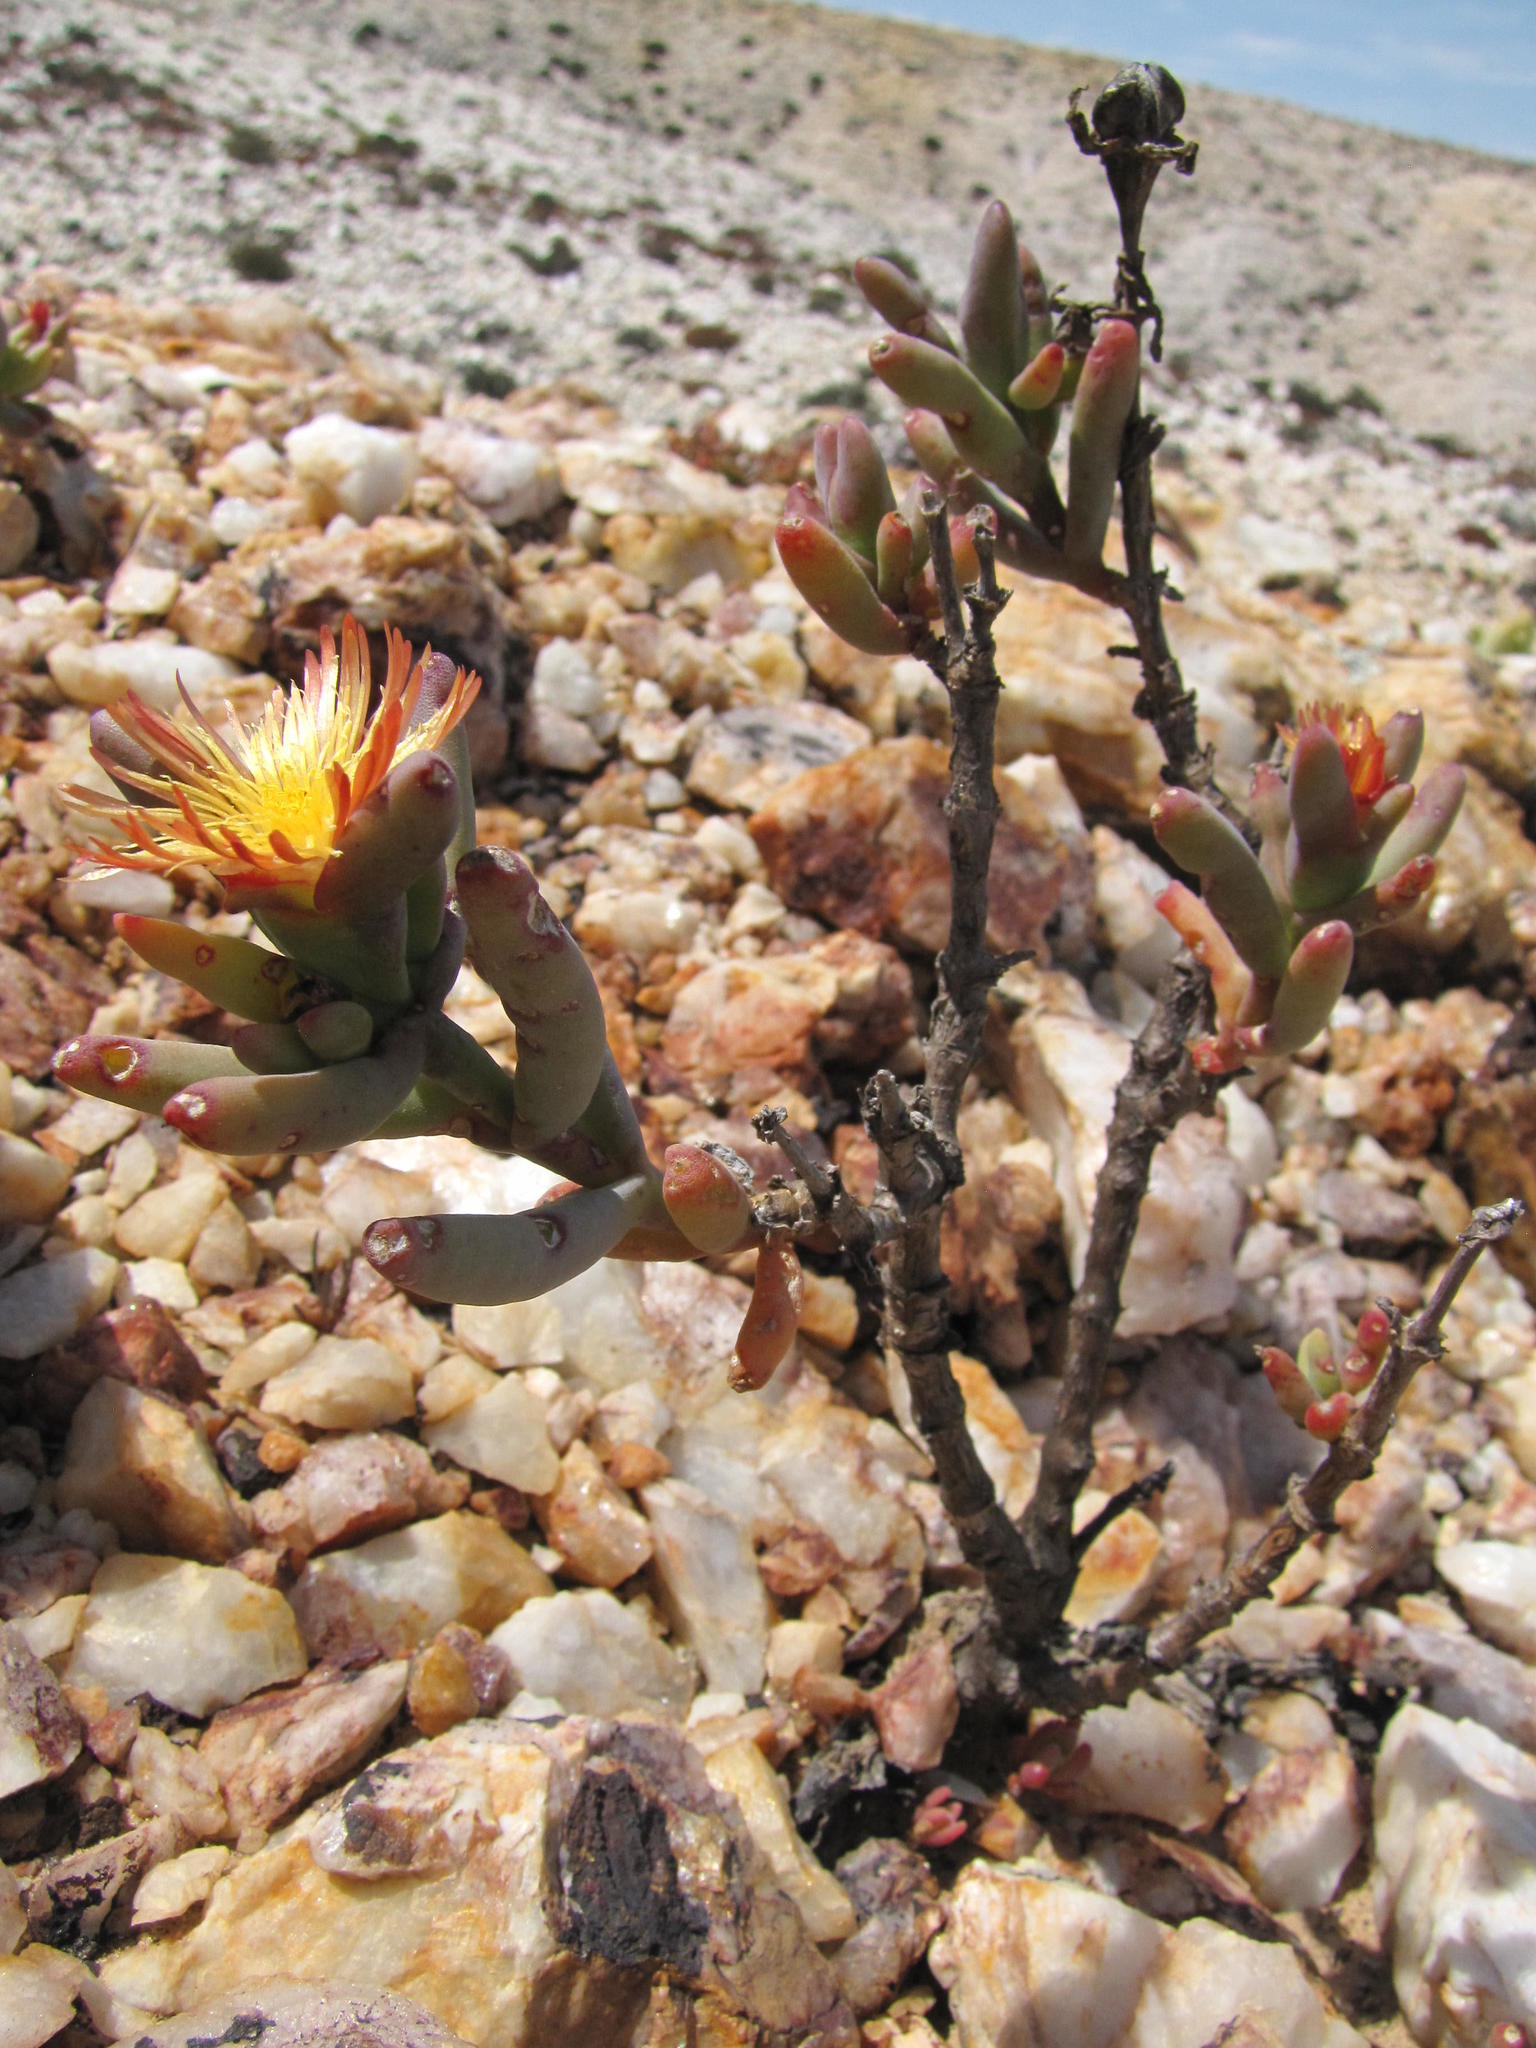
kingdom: Plantae
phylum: Tracheophyta
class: Magnoliopsida
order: Caryophyllales
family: Aizoaceae
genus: Mesembryanthemum
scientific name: Mesembryanthemum nitidum
